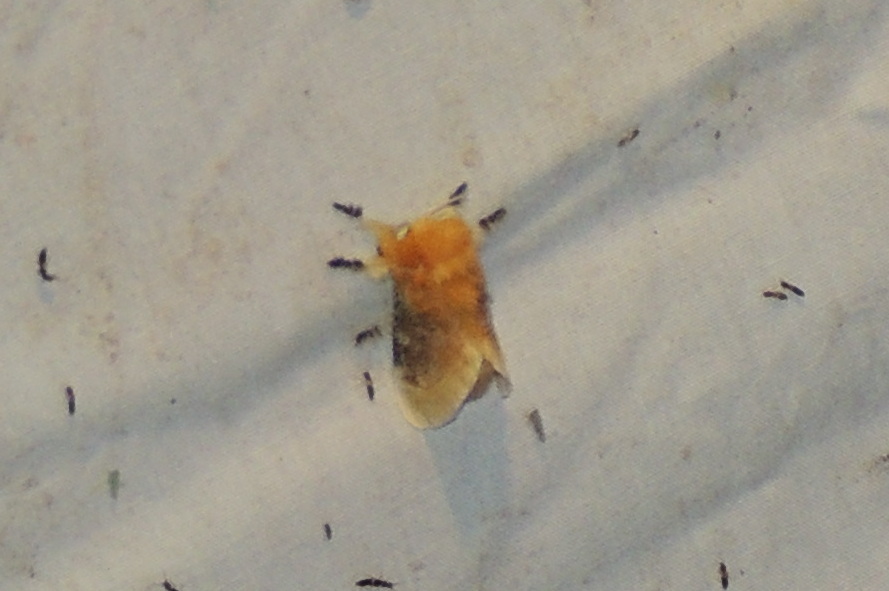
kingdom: Animalia
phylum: Arthropoda
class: Insecta
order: Lepidoptera
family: Megalopygidae
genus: Megalopyge
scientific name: Megalopyge opercularis
